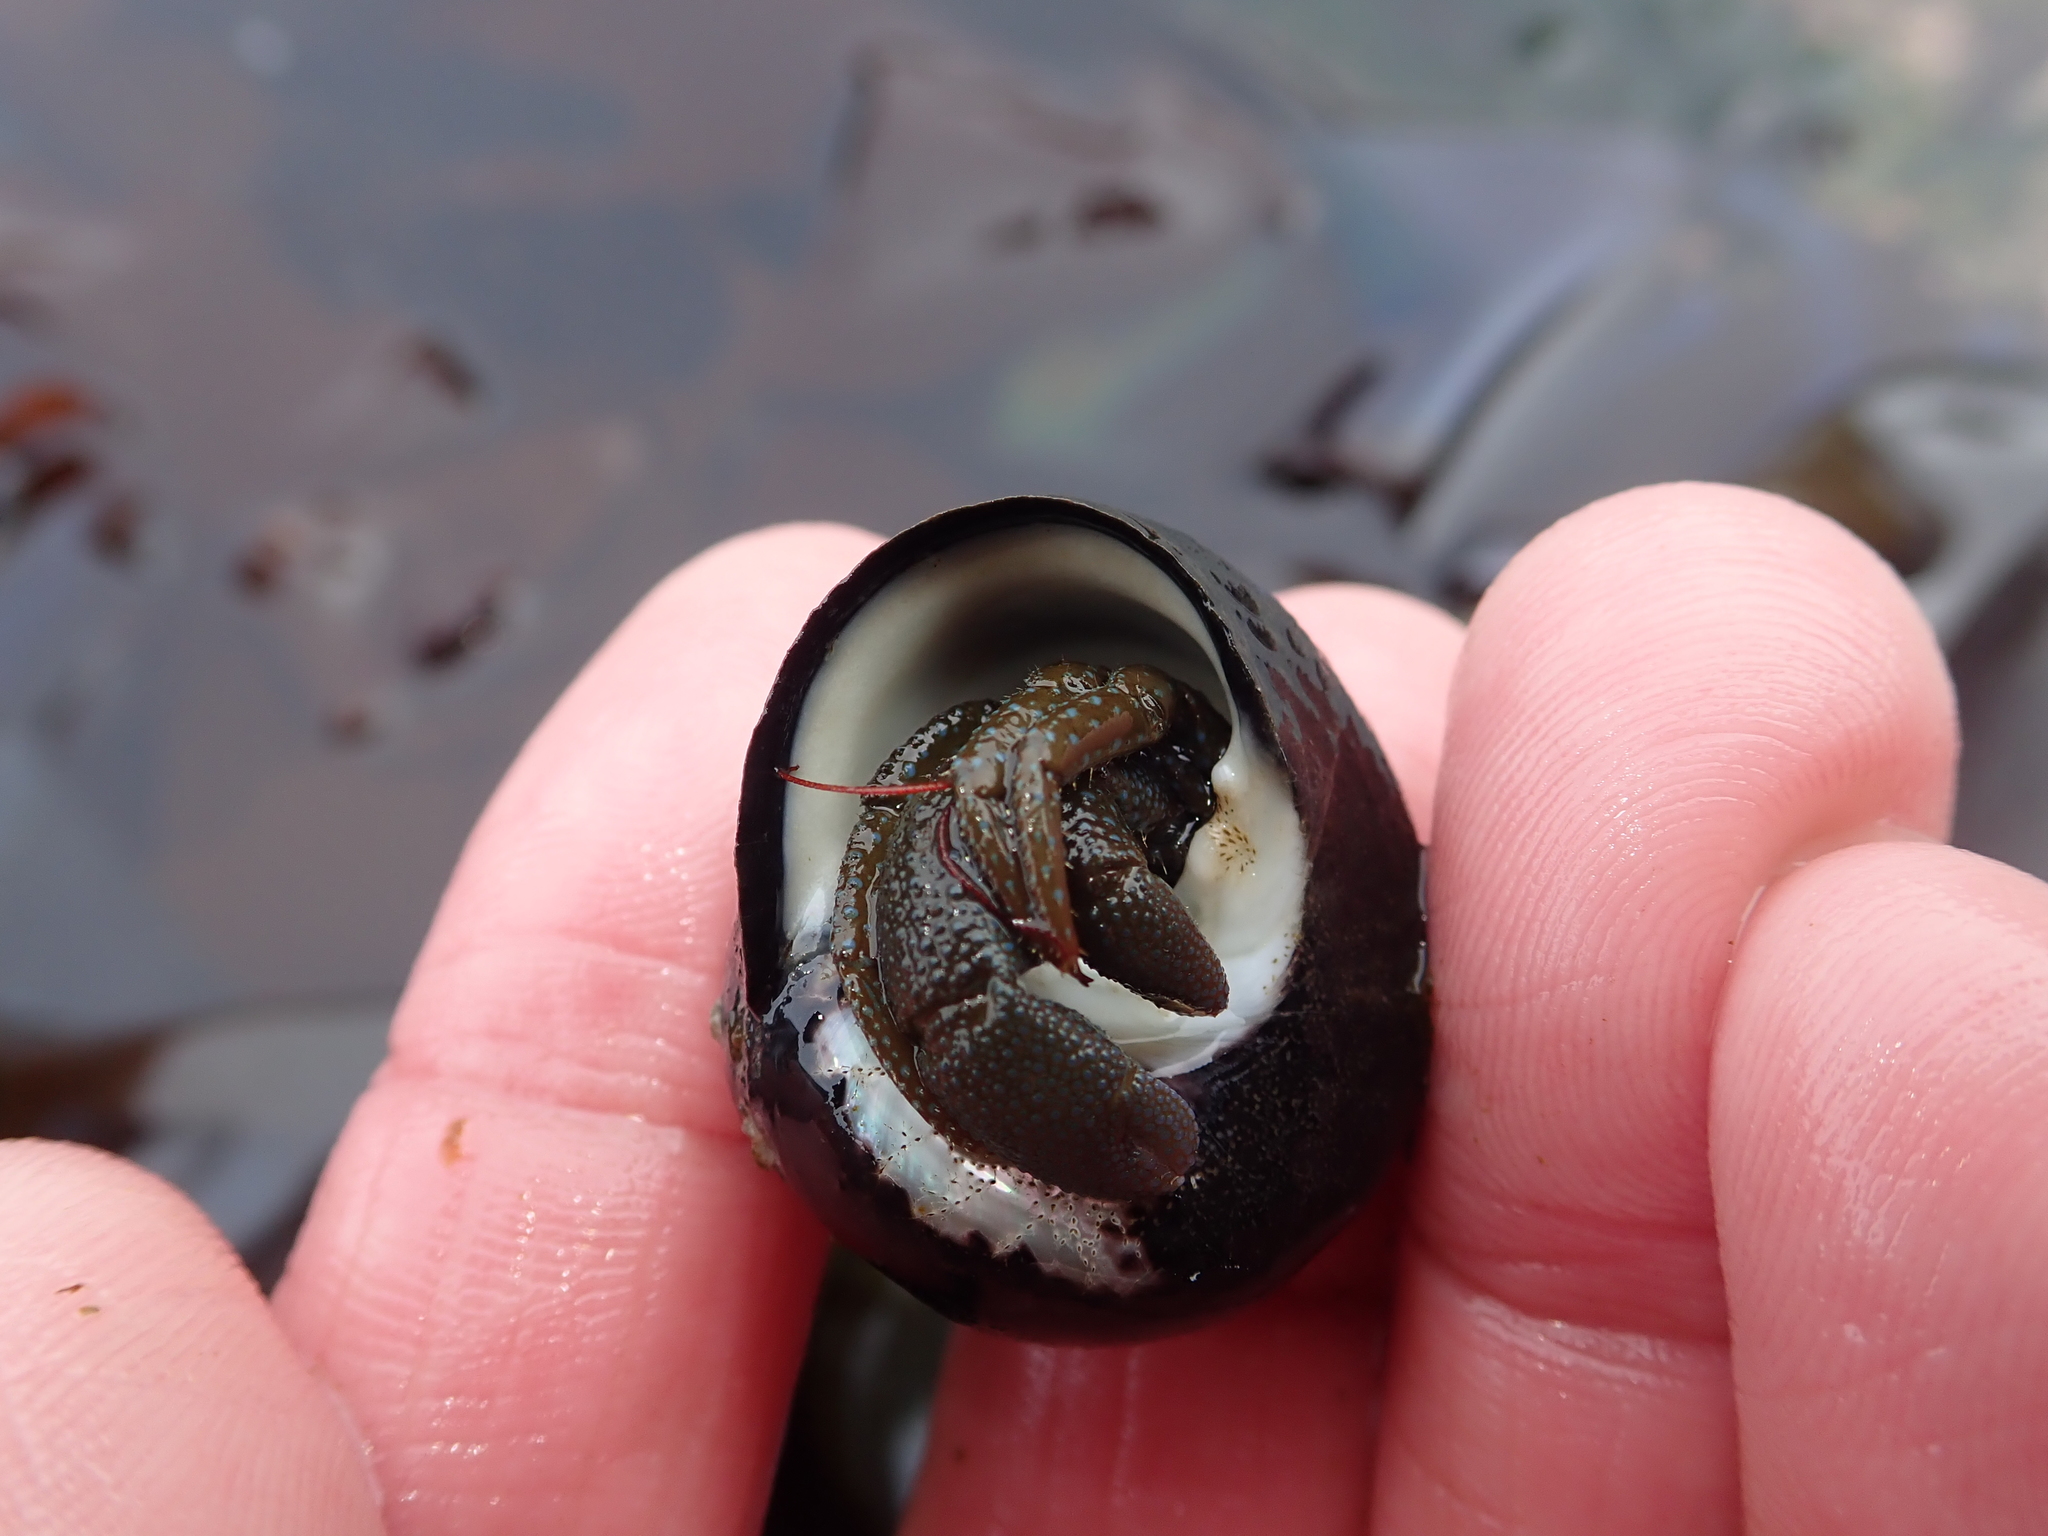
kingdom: Animalia
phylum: Arthropoda
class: Malacostraca
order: Decapoda
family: Paguridae
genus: Pagurus
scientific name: Pagurus granosimanus
